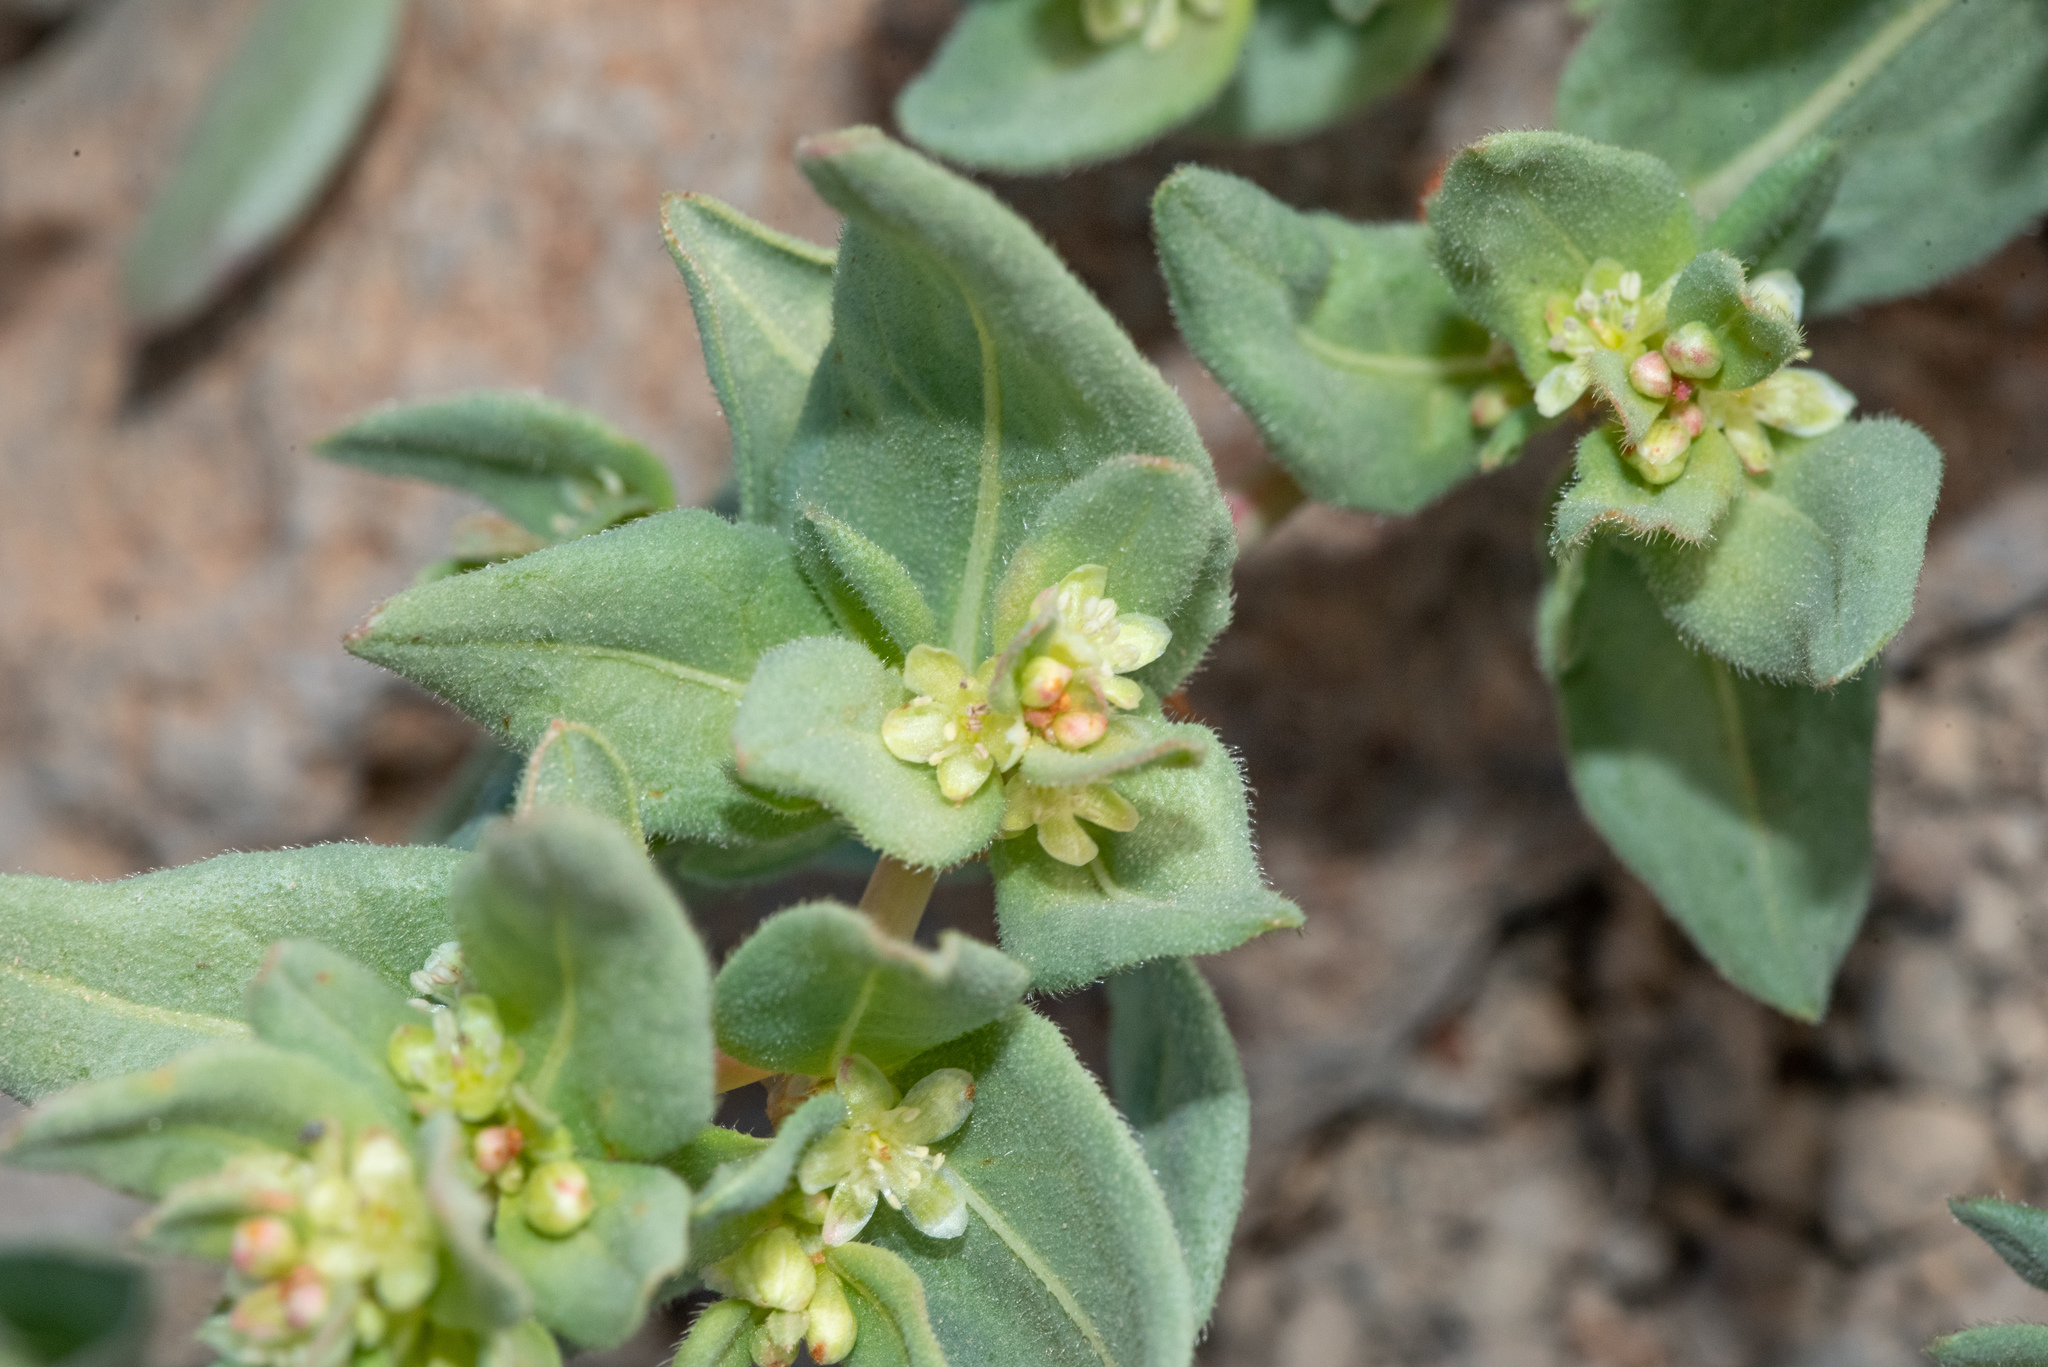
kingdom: Plantae
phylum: Tracheophyta
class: Magnoliopsida
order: Caryophyllales
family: Polygonaceae
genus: Koenigia
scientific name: Koenigia davisiae
